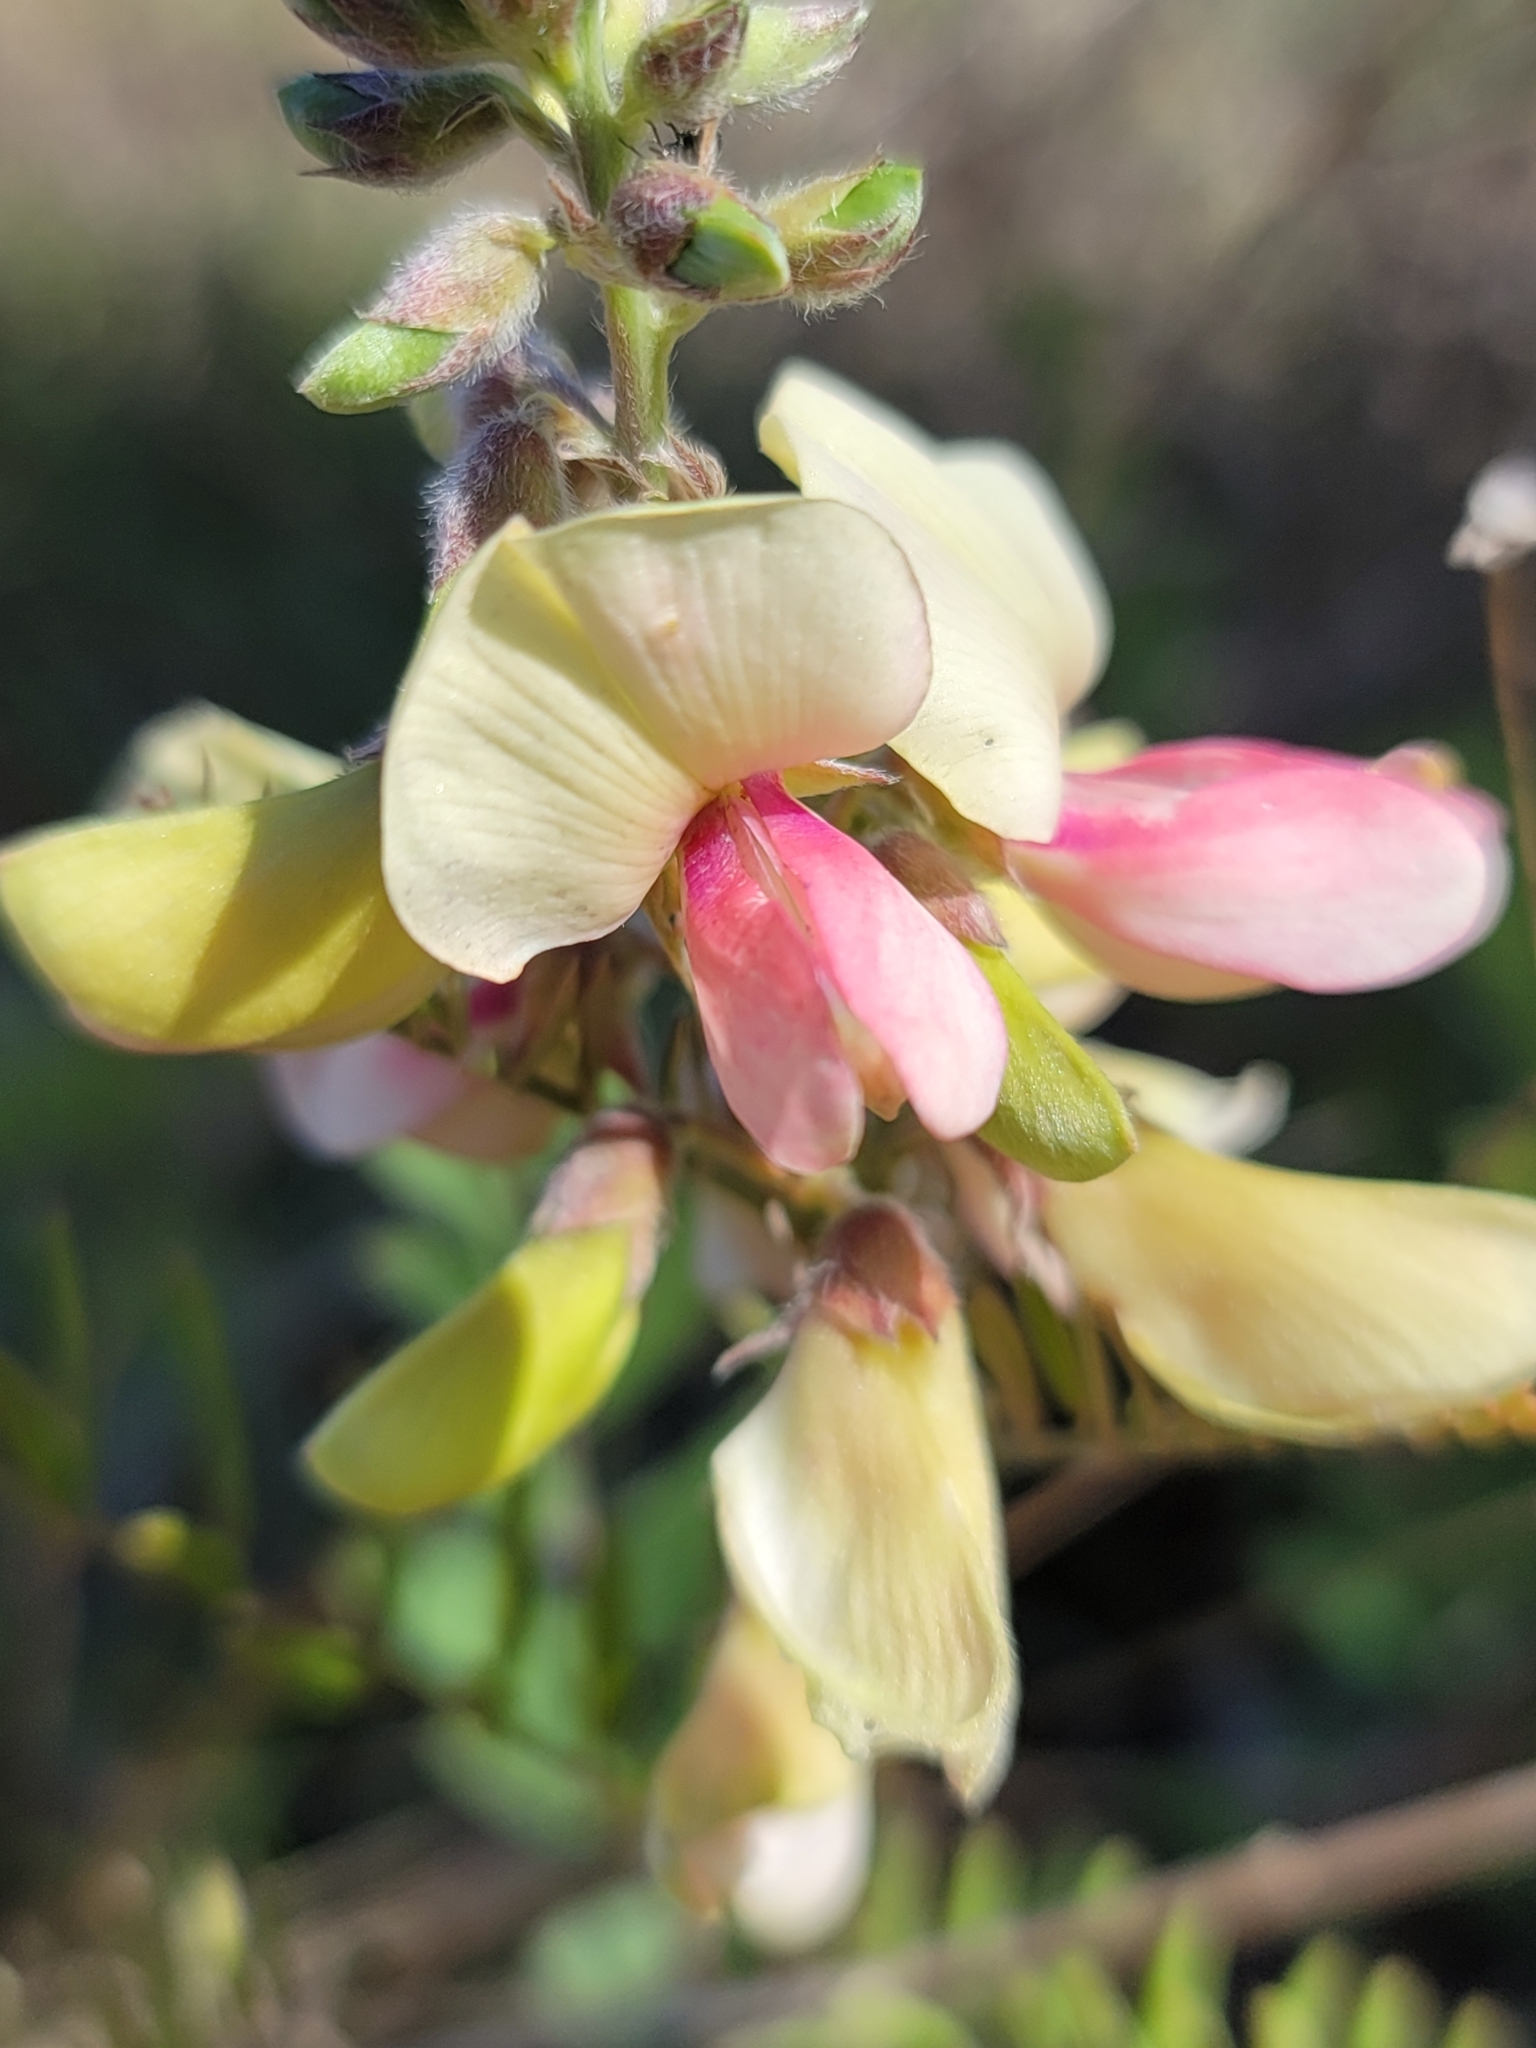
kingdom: Plantae
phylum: Tracheophyta
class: Magnoliopsida
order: Fabales
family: Fabaceae
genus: Tephrosia
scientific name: Tephrosia virginiana
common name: Rabbit-pea
